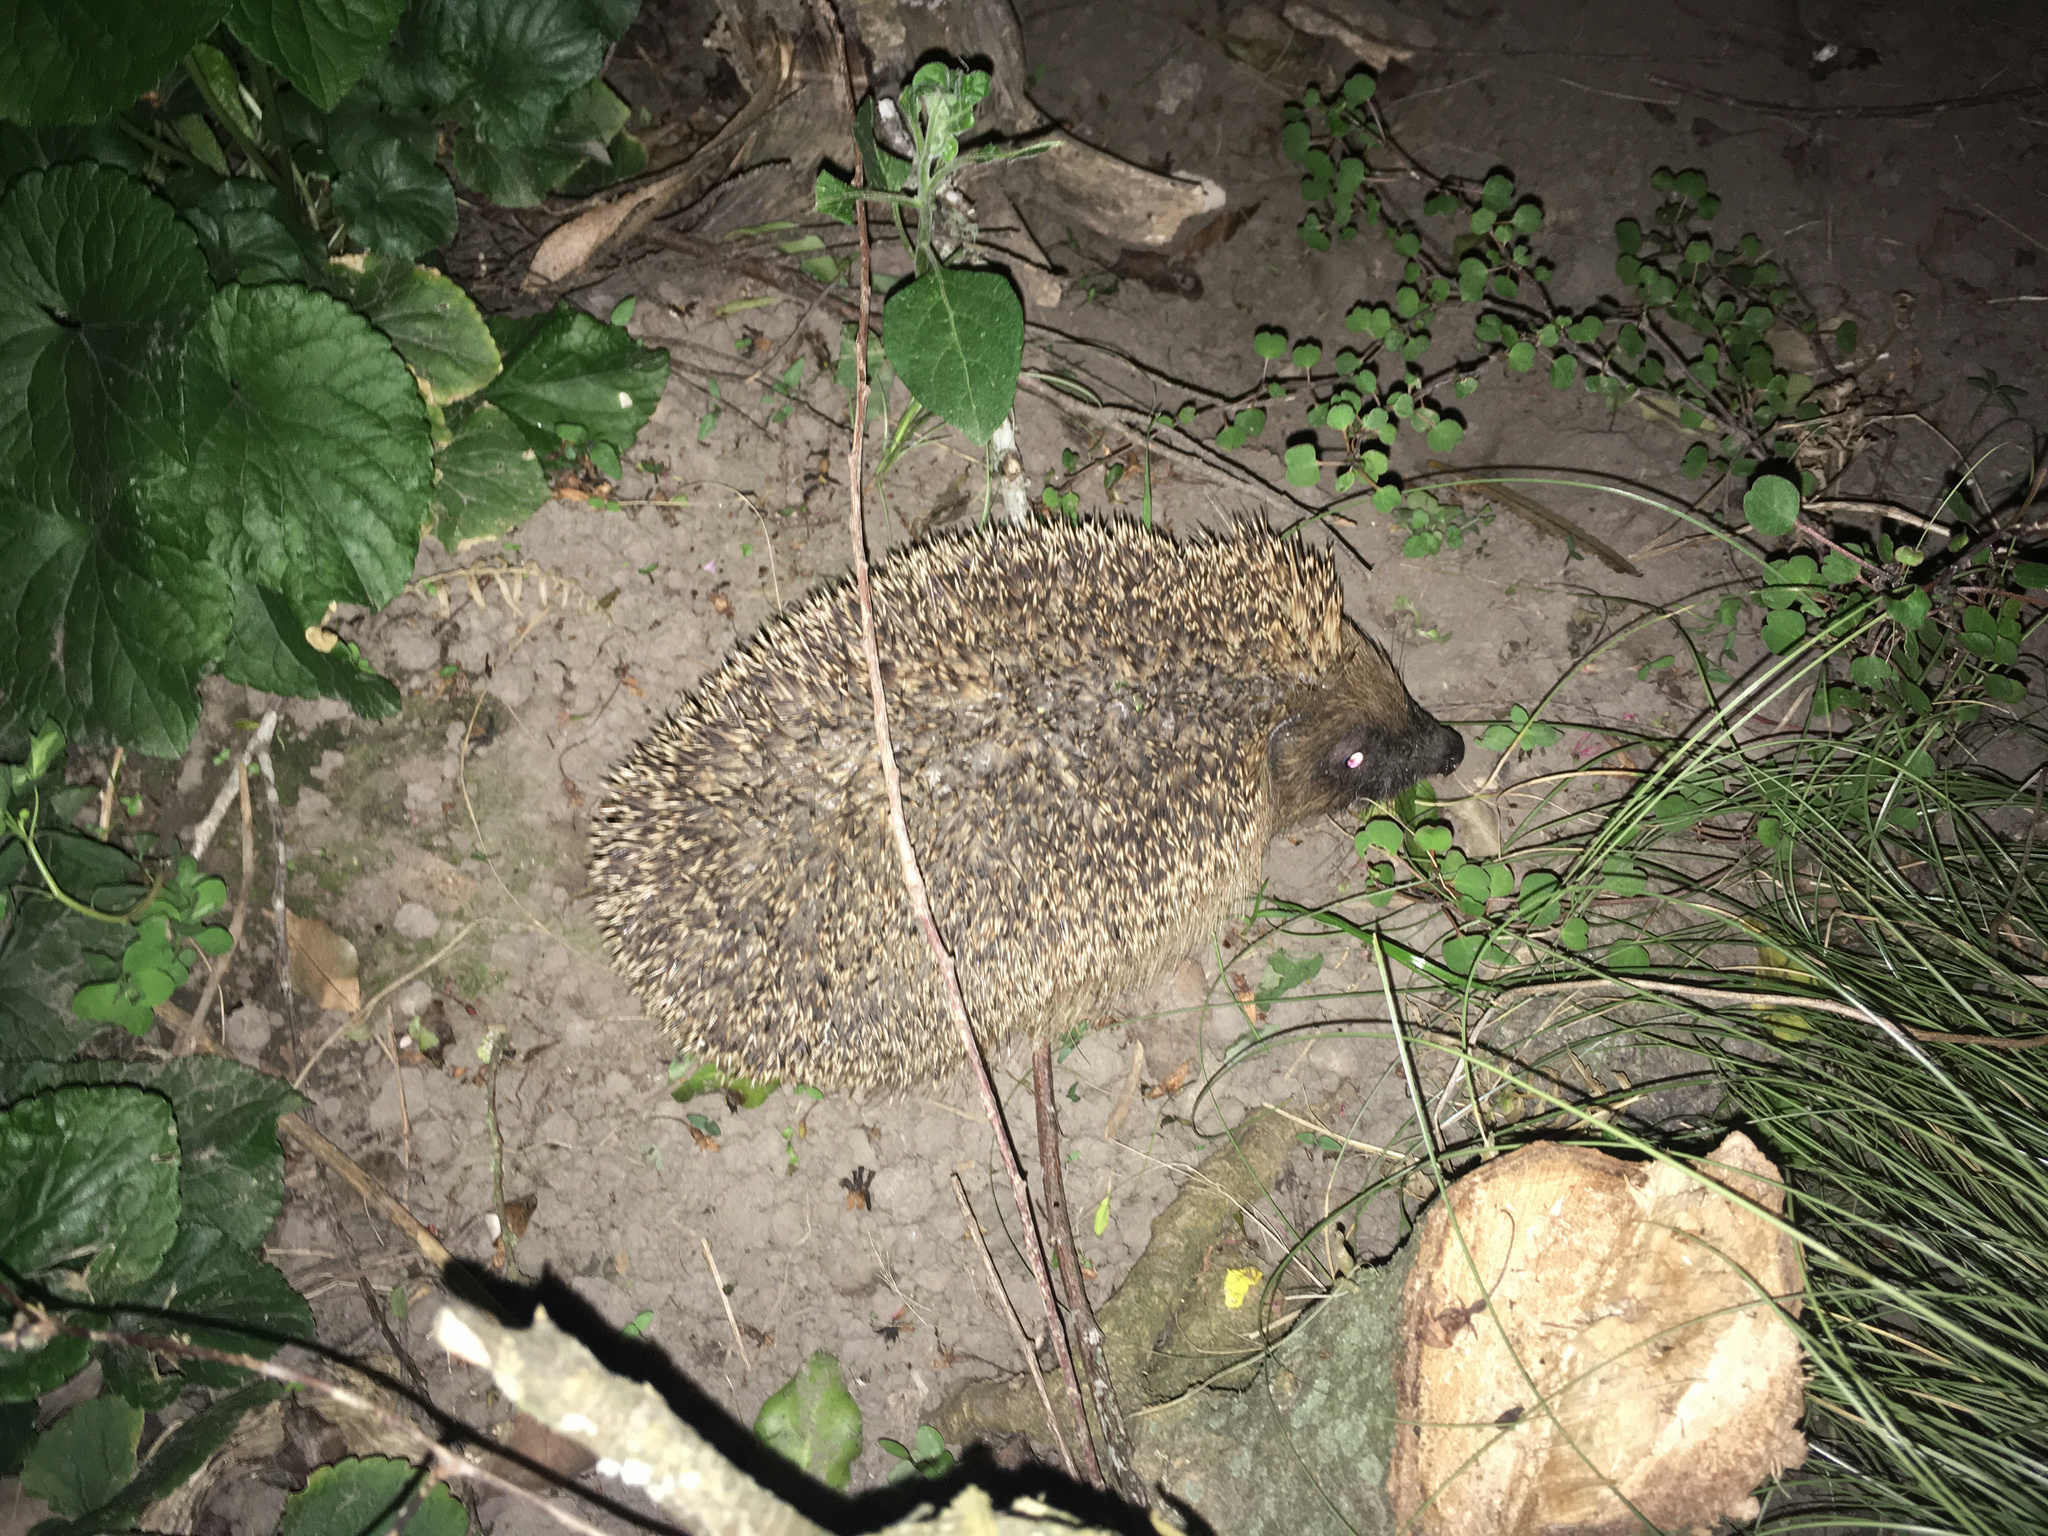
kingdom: Animalia
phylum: Chordata
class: Mammalia
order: Erinaceomorpha
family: Erinaceidae
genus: Erinaceus
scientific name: Erinaceus europaeus
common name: West european hedgehog
